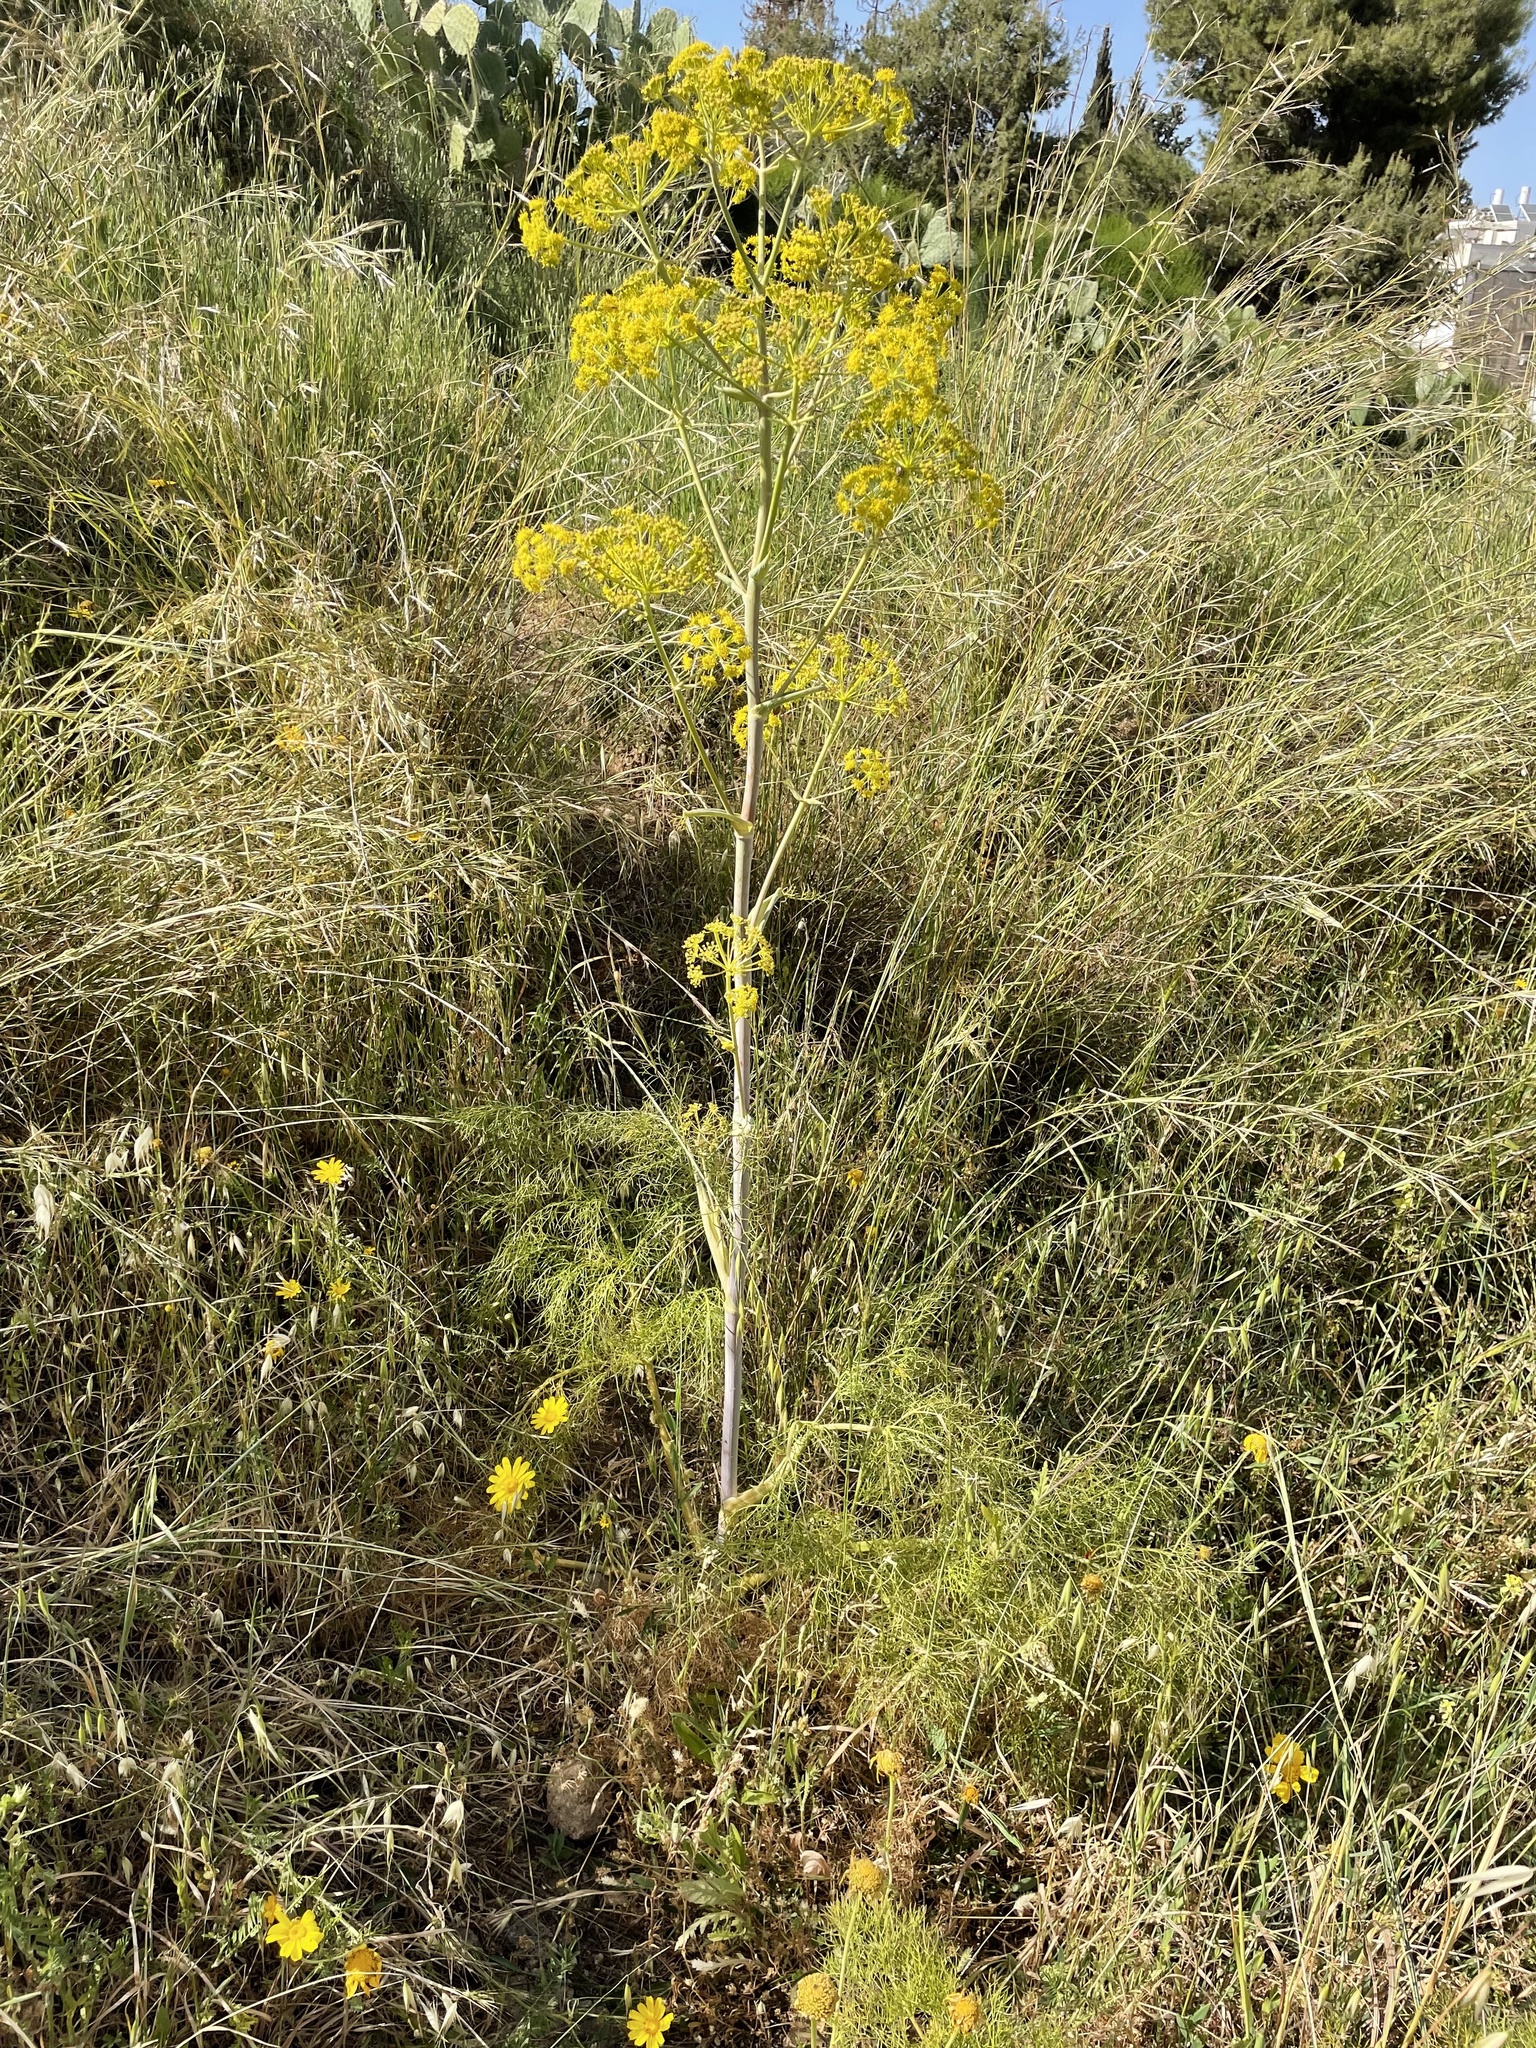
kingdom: Plantae
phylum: Tracheophyta
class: Magnoliopsida
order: Apiales
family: Apiaceae
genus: Foeniculum
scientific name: Foeniculum vulgare
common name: Fennel
